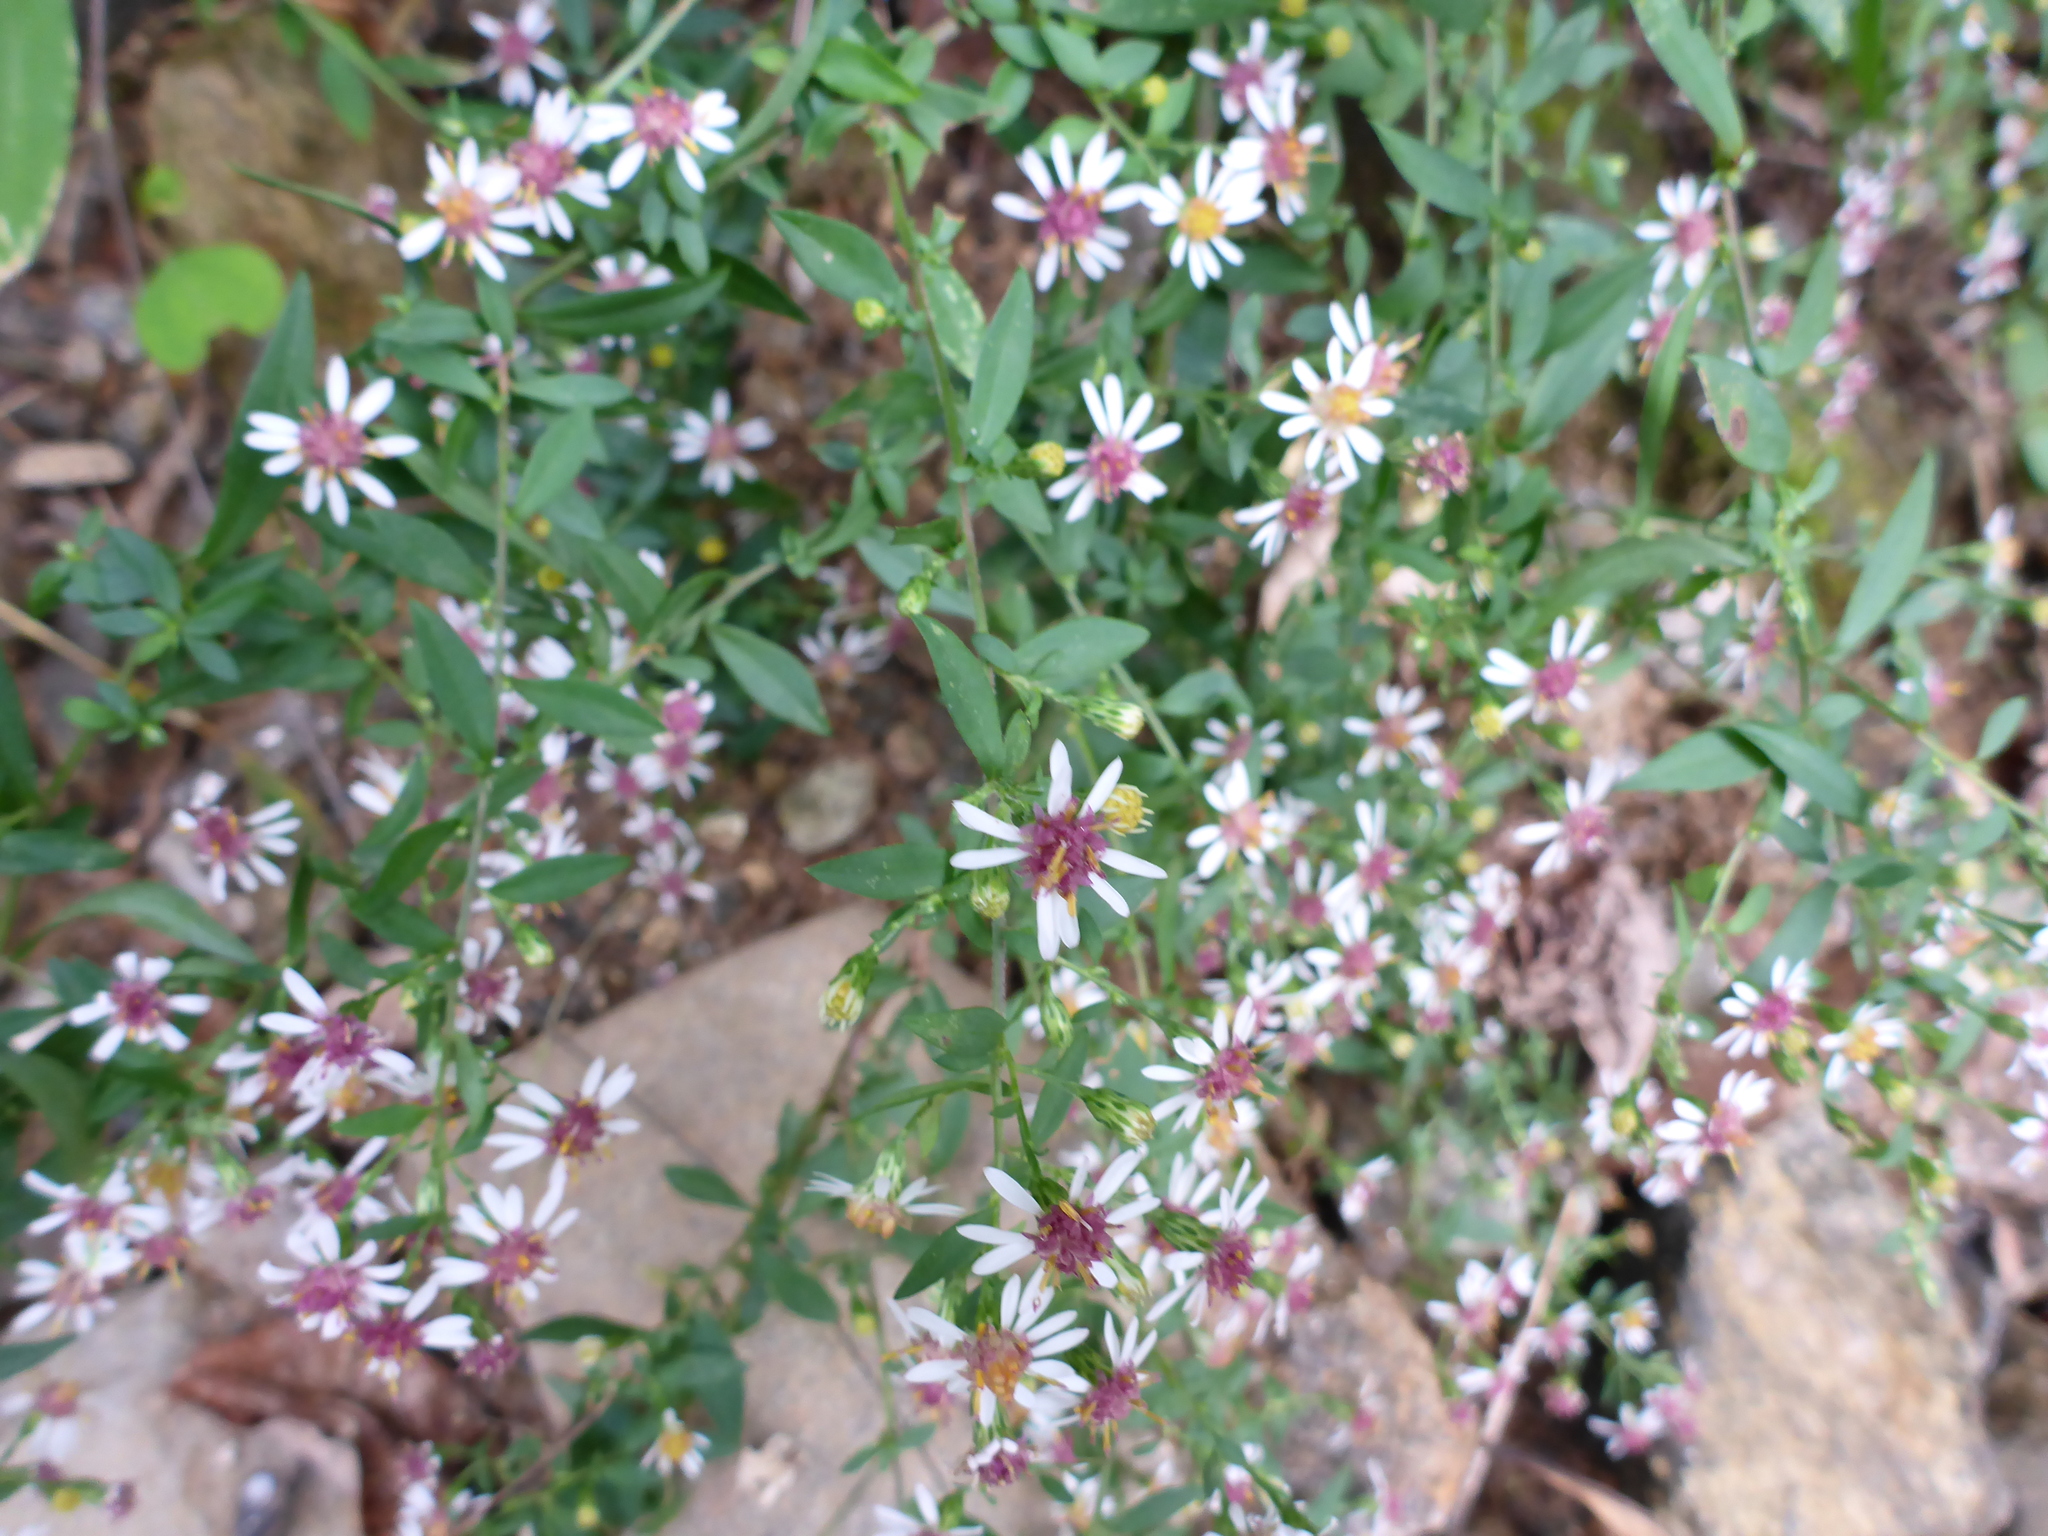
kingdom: Plantae
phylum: Tracheophyta
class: Magnoliopsida
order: Asterales
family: Asteraceae
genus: Symphyotrichum
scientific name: Symphyotrichum lateriflorum
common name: Calico aster
